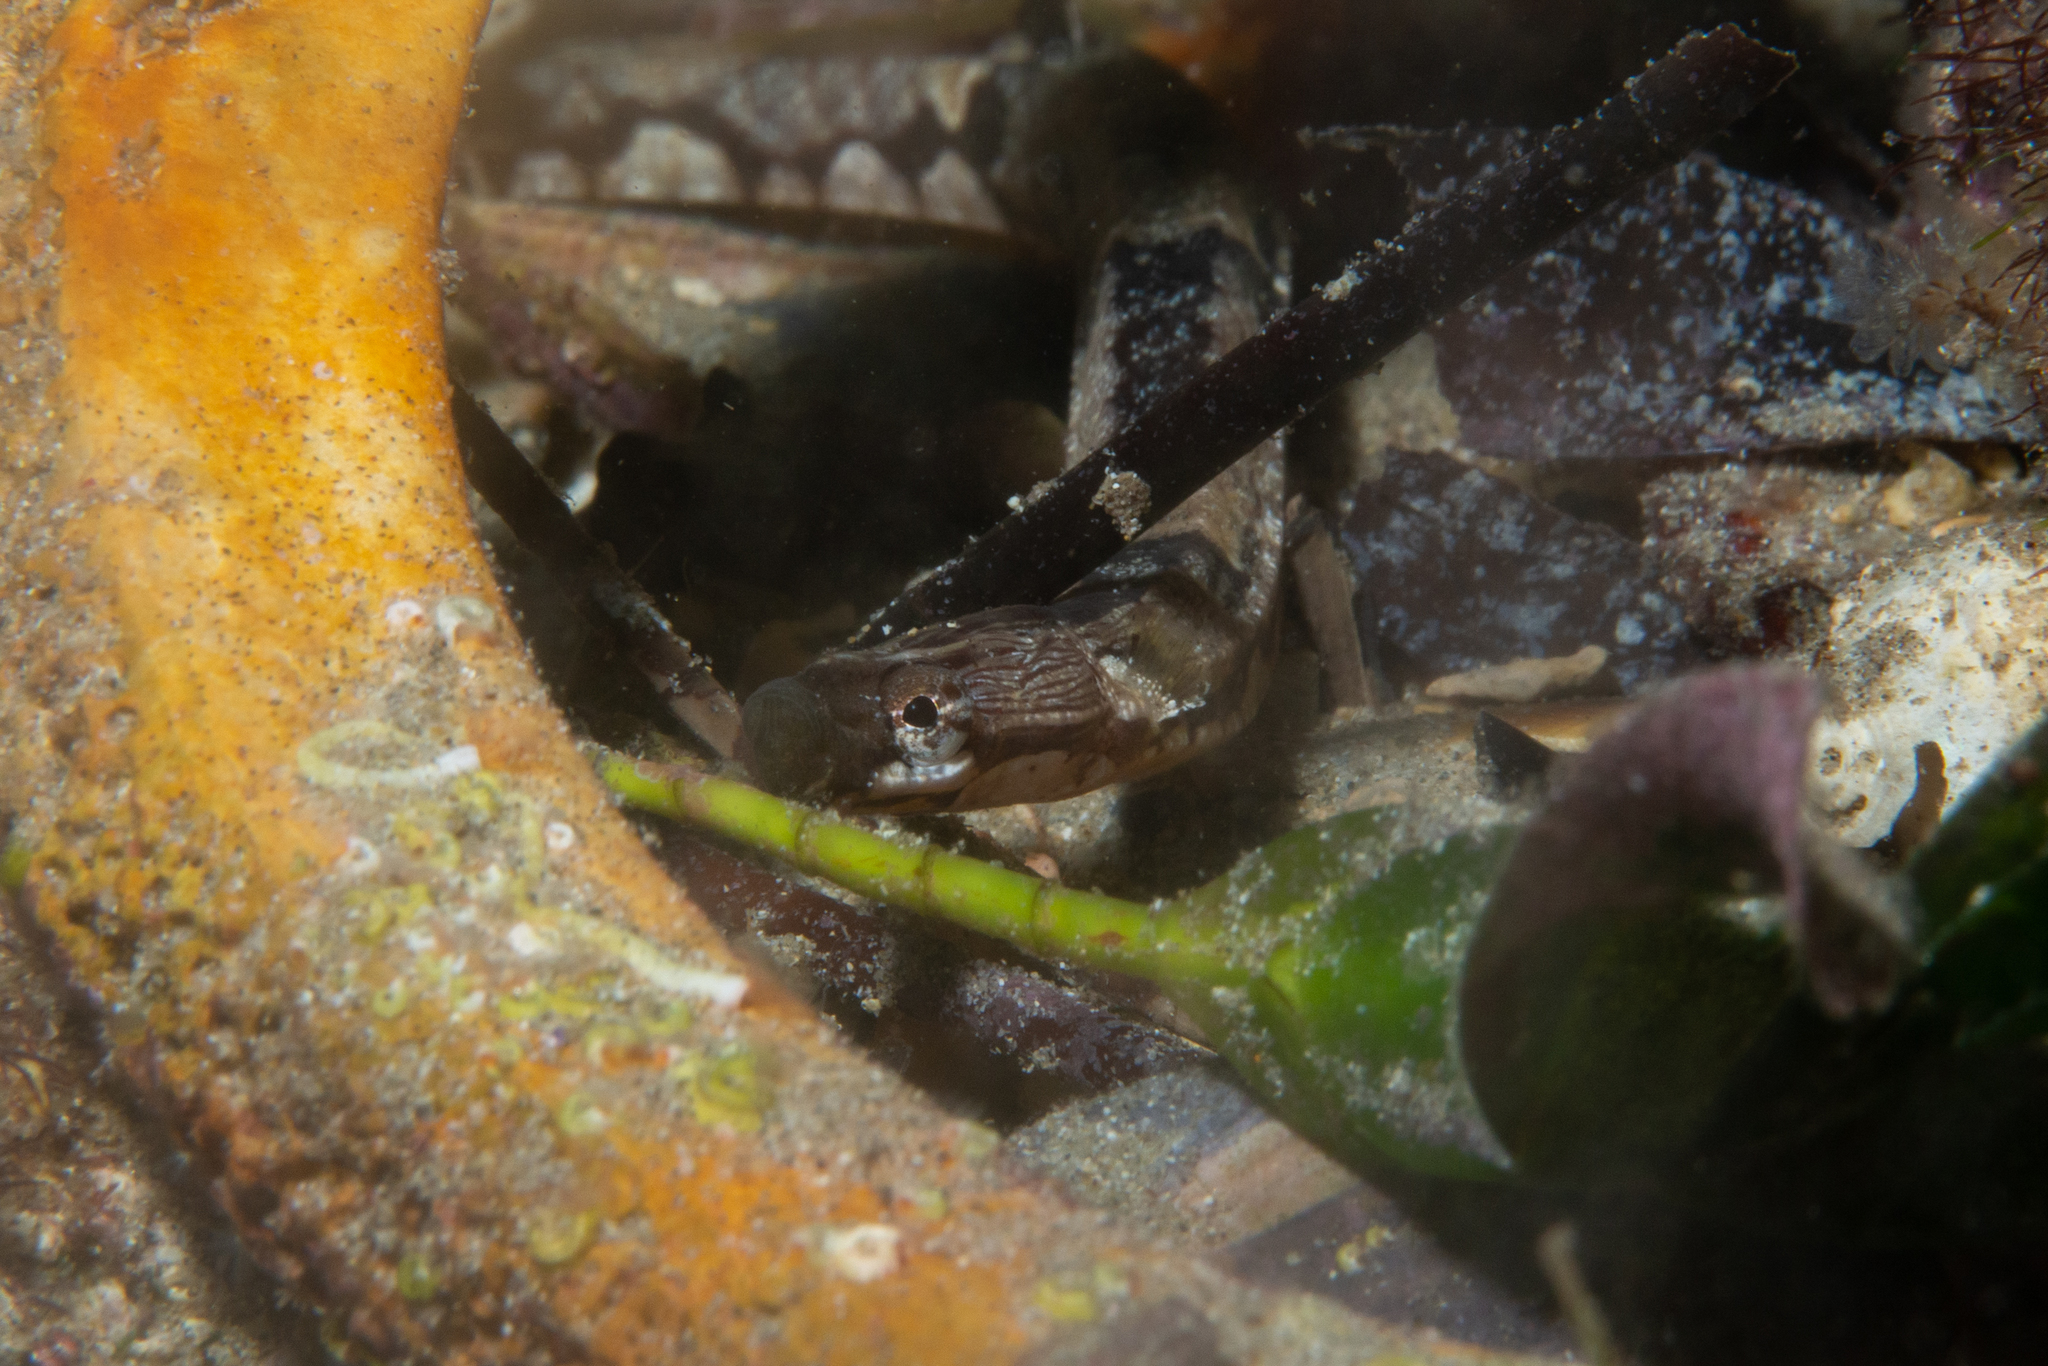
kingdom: Animalia
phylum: Chordata
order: Syngnathiformes
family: Syngnathidae
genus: Stipecampus
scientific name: Stipecampus cristatus
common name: Crested pipefish
